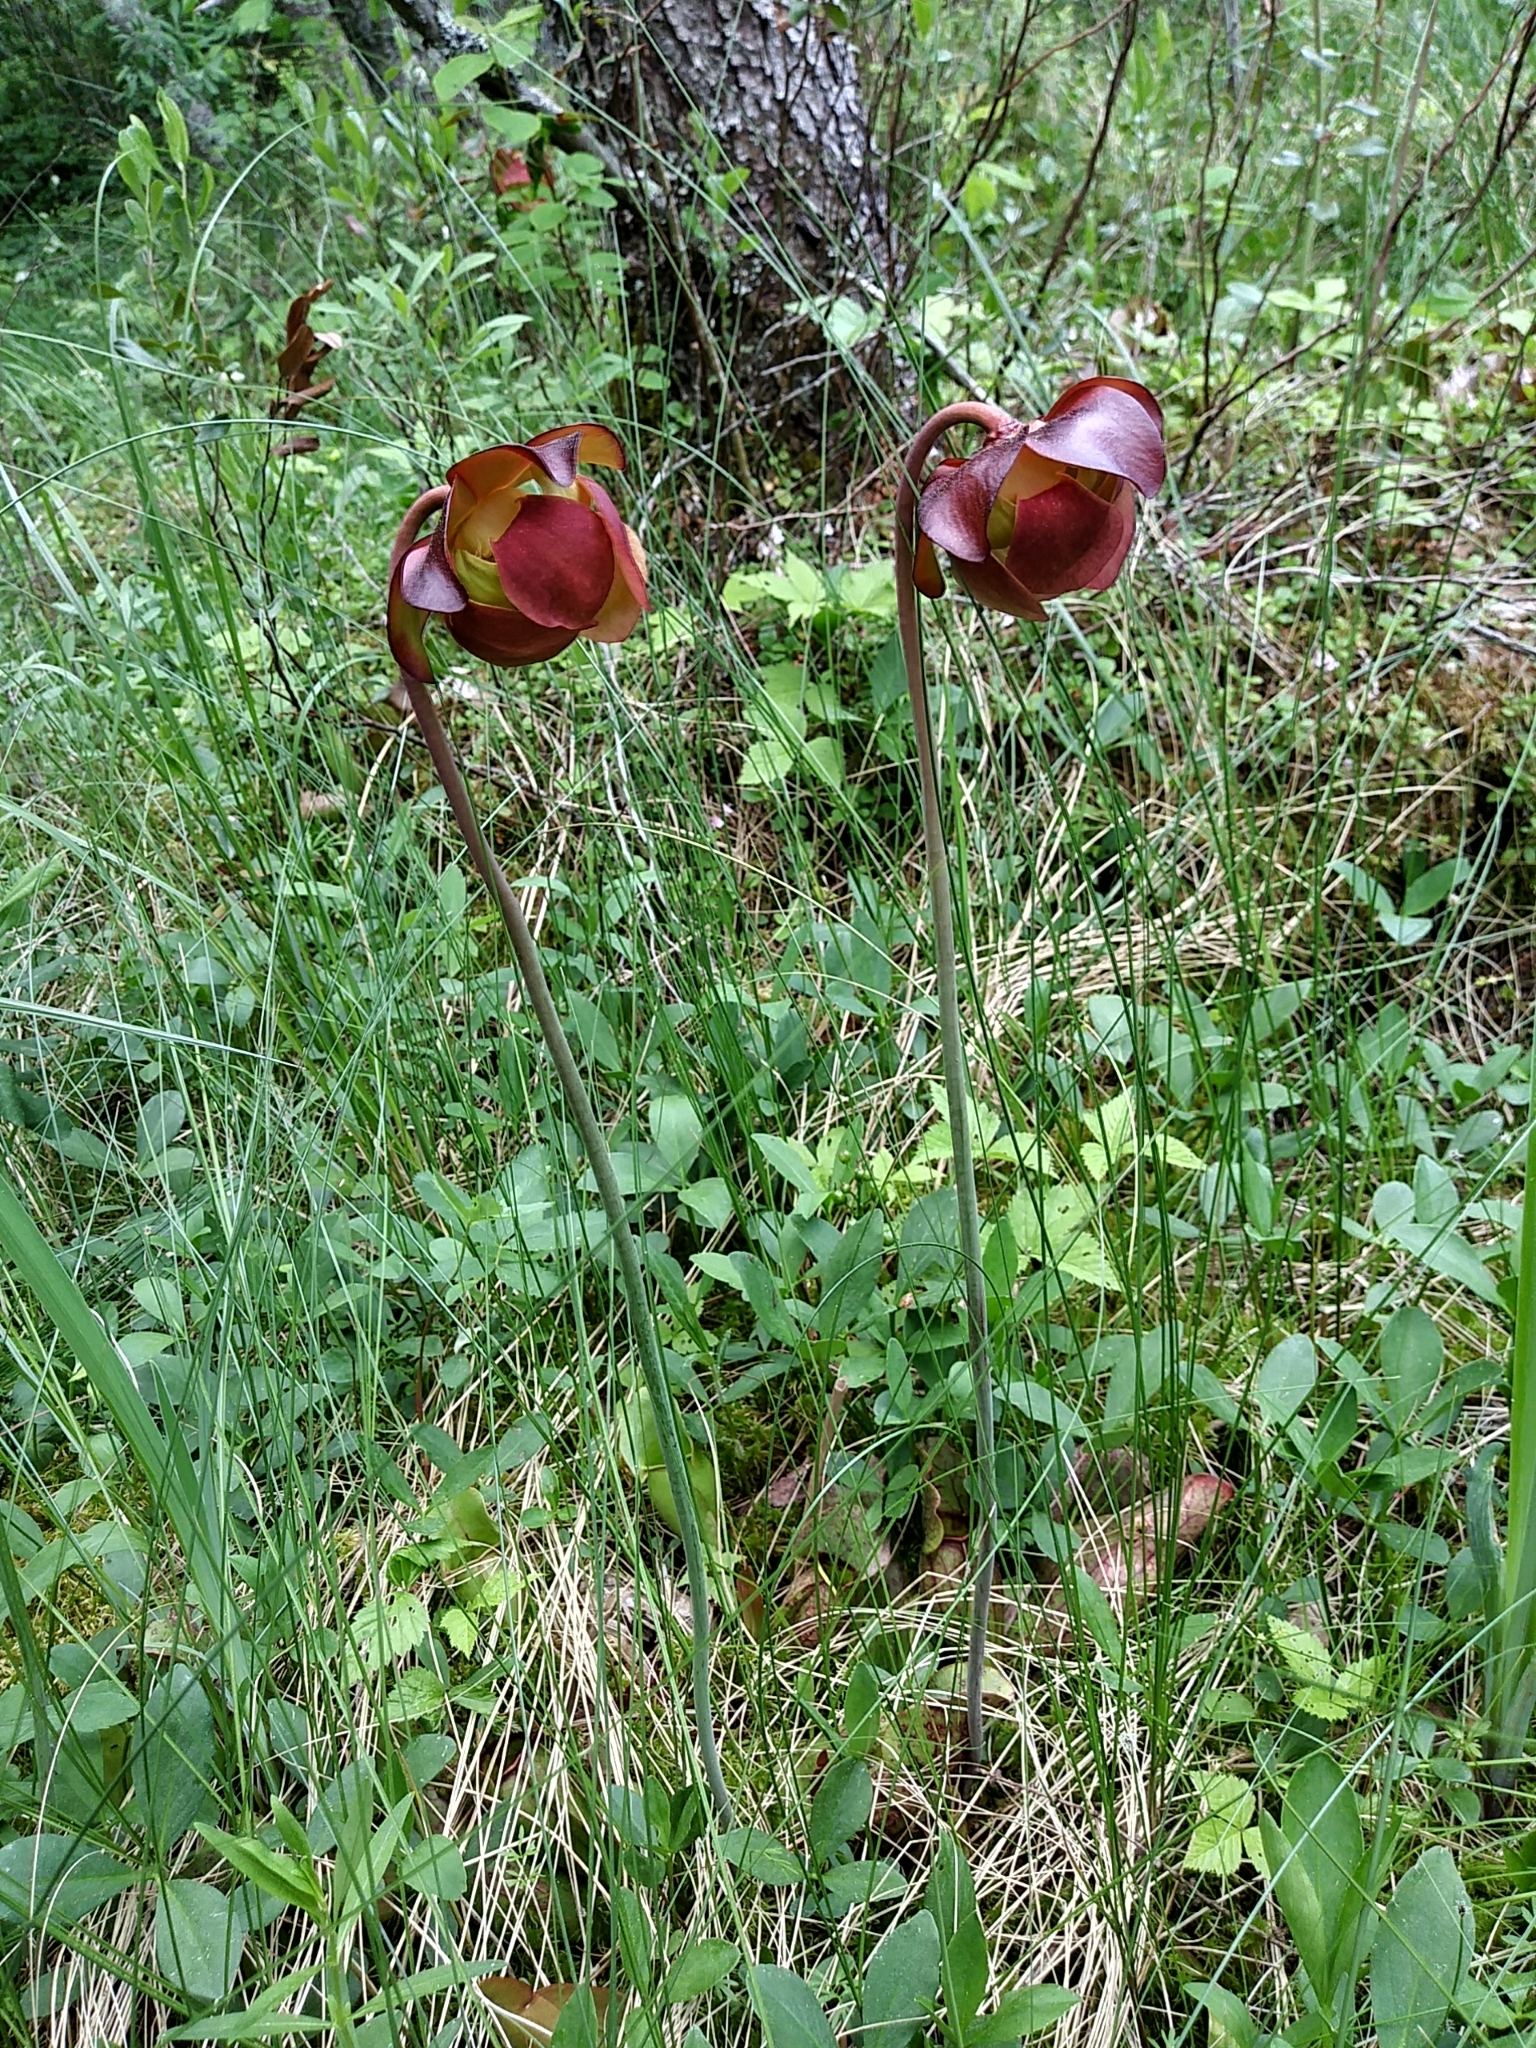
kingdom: Plantae
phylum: Tracheophyta
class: Magnoliopsida
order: Ericales
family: Sarraceniaceae
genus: Sarracenia
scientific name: Sarracenia purpurea
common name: Pitcherplant
